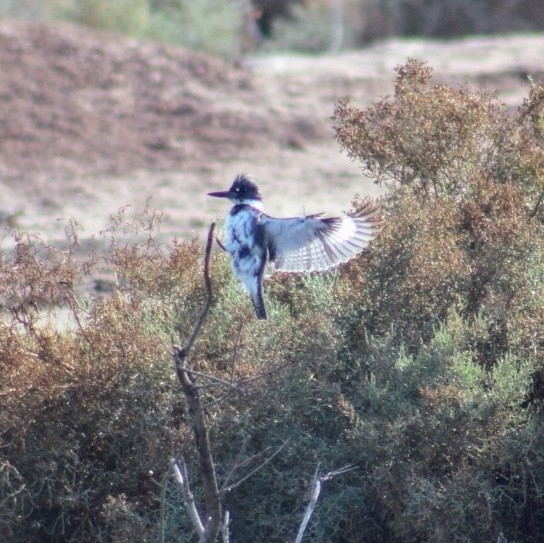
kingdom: Animalia
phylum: Chordata
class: Aves
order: Coraciiformes
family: Alcedinidae
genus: Megaceryle
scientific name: Megaceryle alcyon
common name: Belted kingfisher
